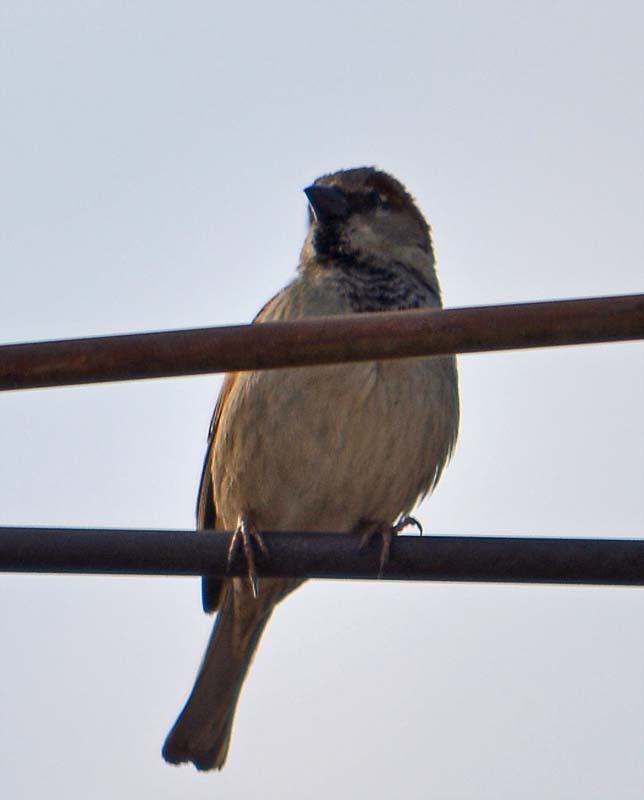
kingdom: Animalia
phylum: Chordata
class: Aves
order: Passeriformes
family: Passeridae
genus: Passer
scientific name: Passer domesticus
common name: House sparrow
